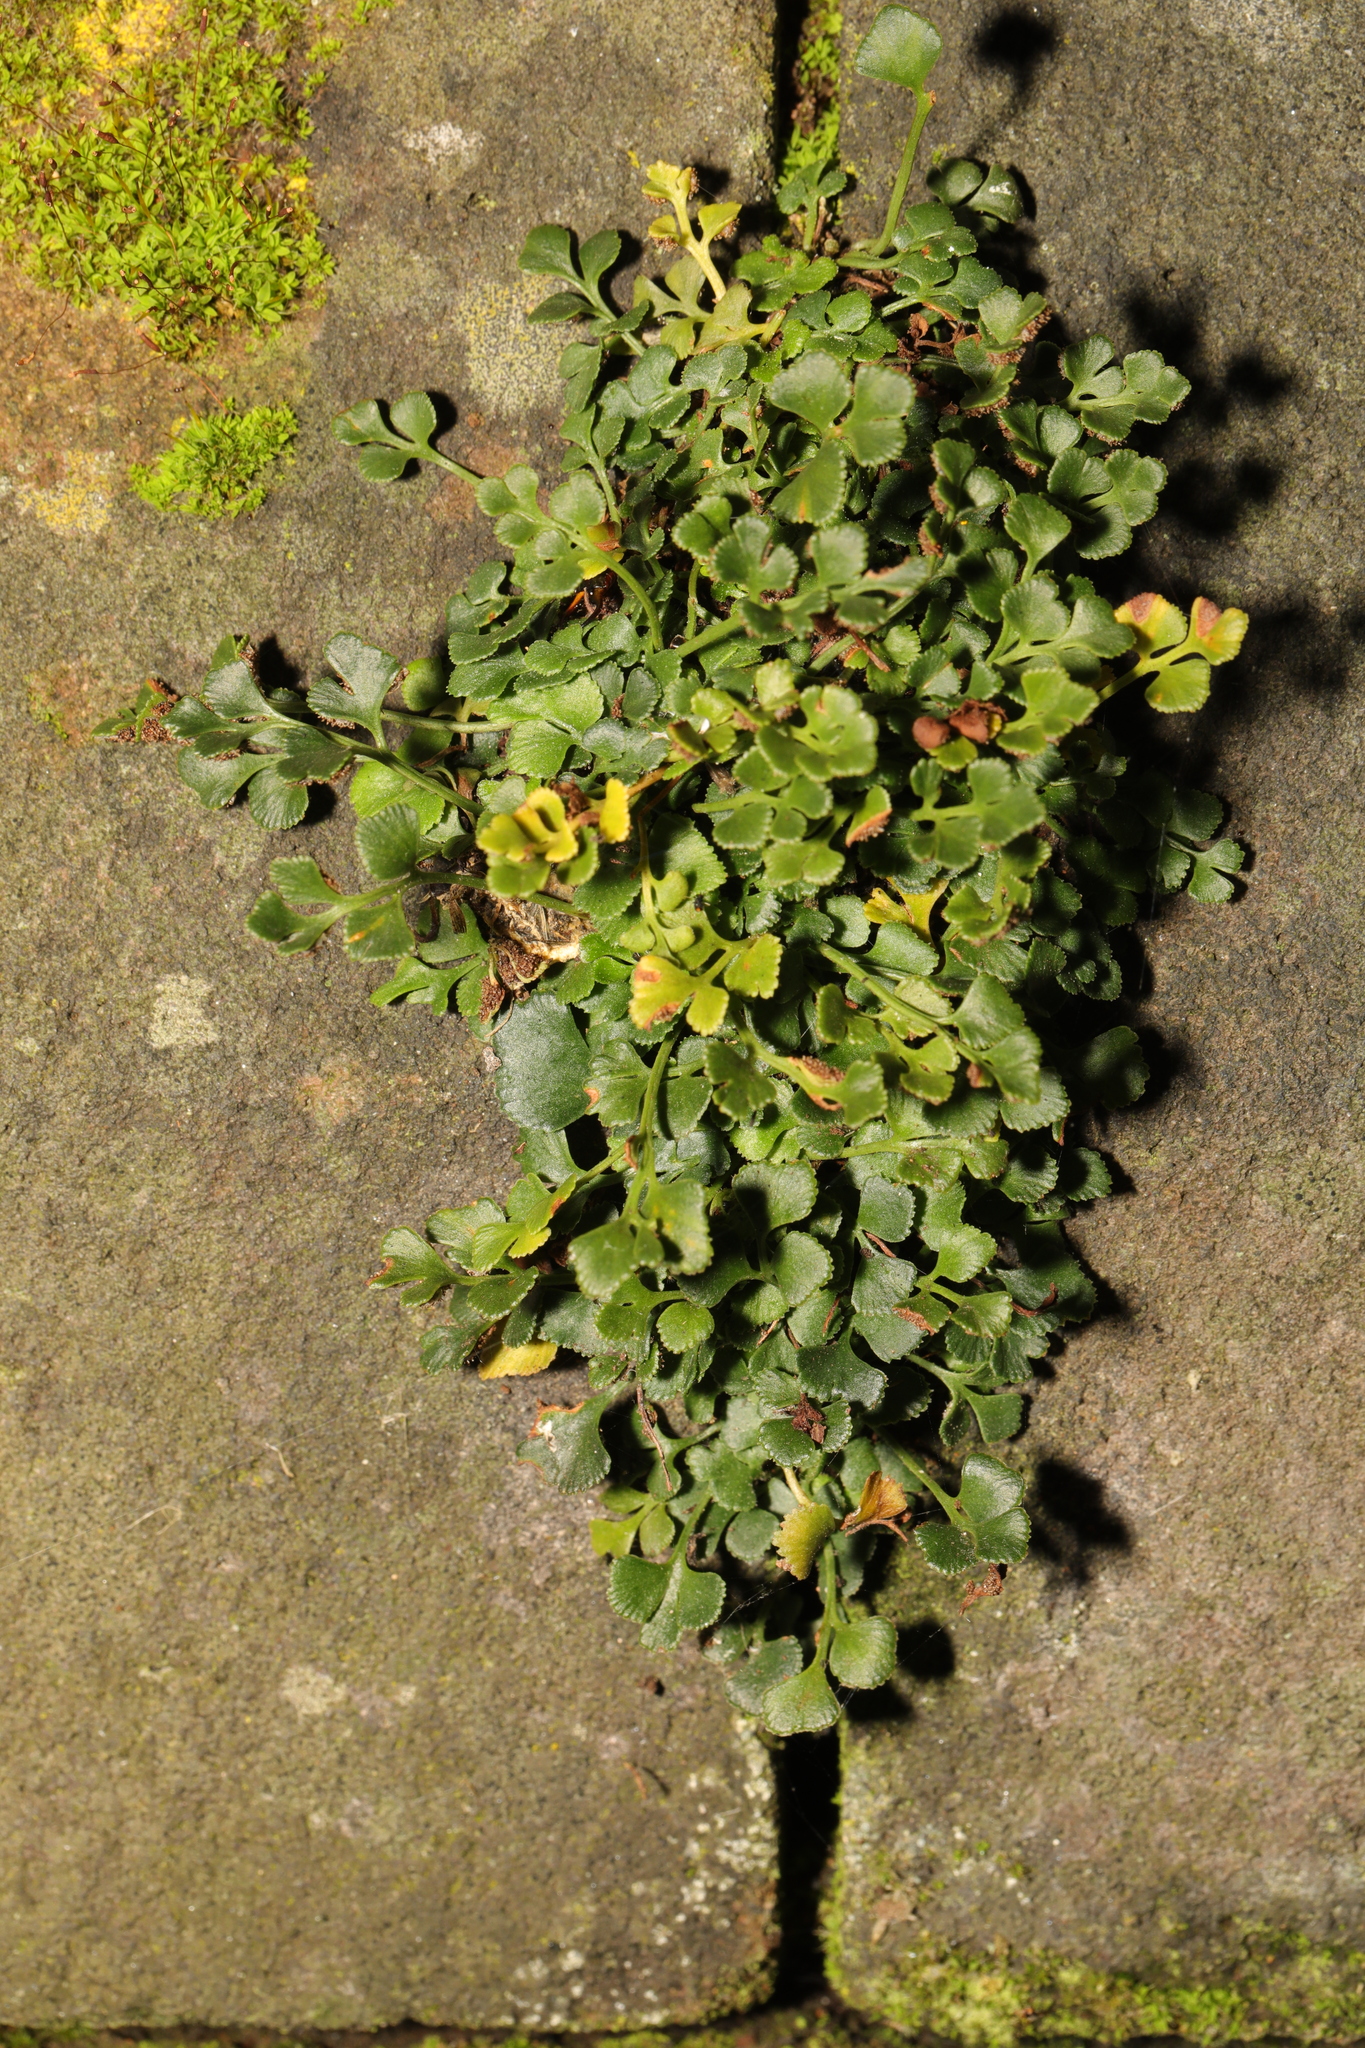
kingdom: Plantae
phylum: Tracheophyta
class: Polypodiopsida
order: Polypodiales
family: Aspleniaceae
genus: Asplenium
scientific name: Asplenium ruta-muraria
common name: Wall-rue
